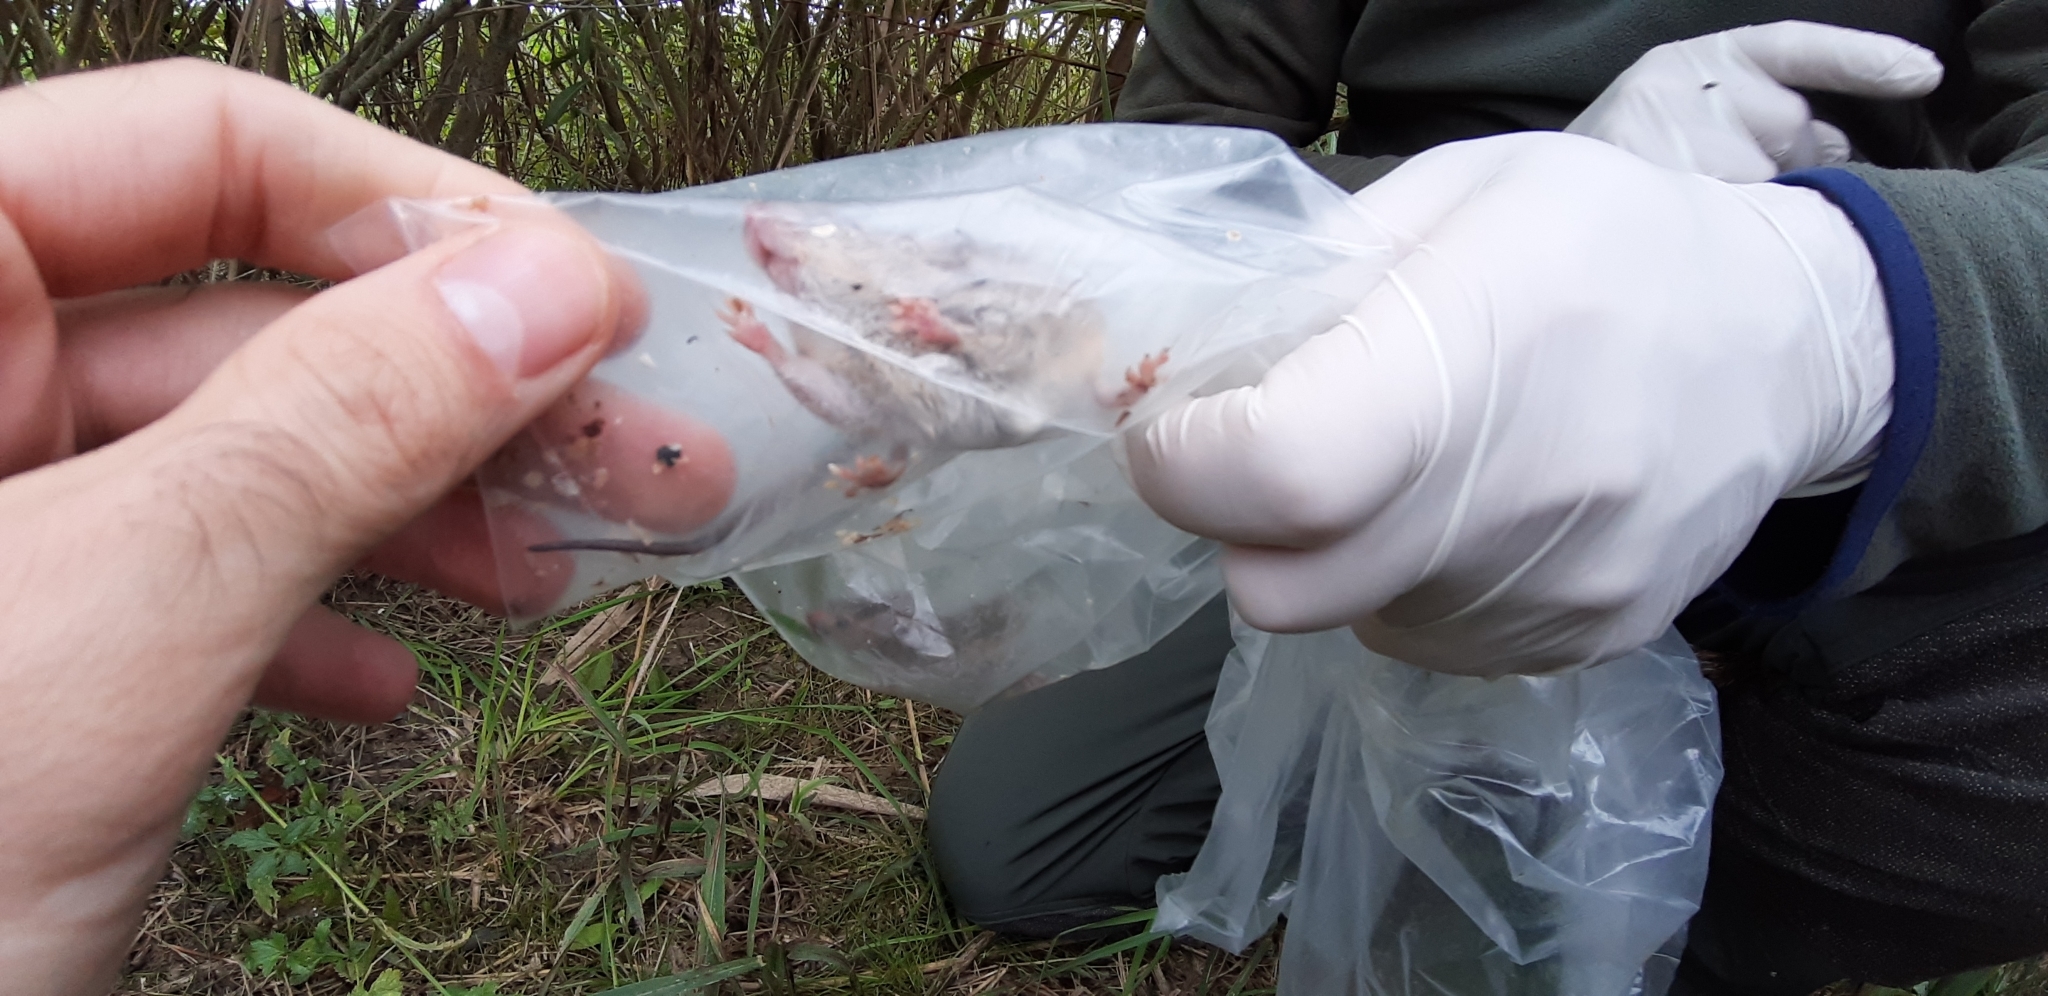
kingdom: Animalia
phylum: Chordata
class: Mammalia
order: Rodentia
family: Muridae
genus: Mus
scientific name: Mus musculus
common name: House mouse
